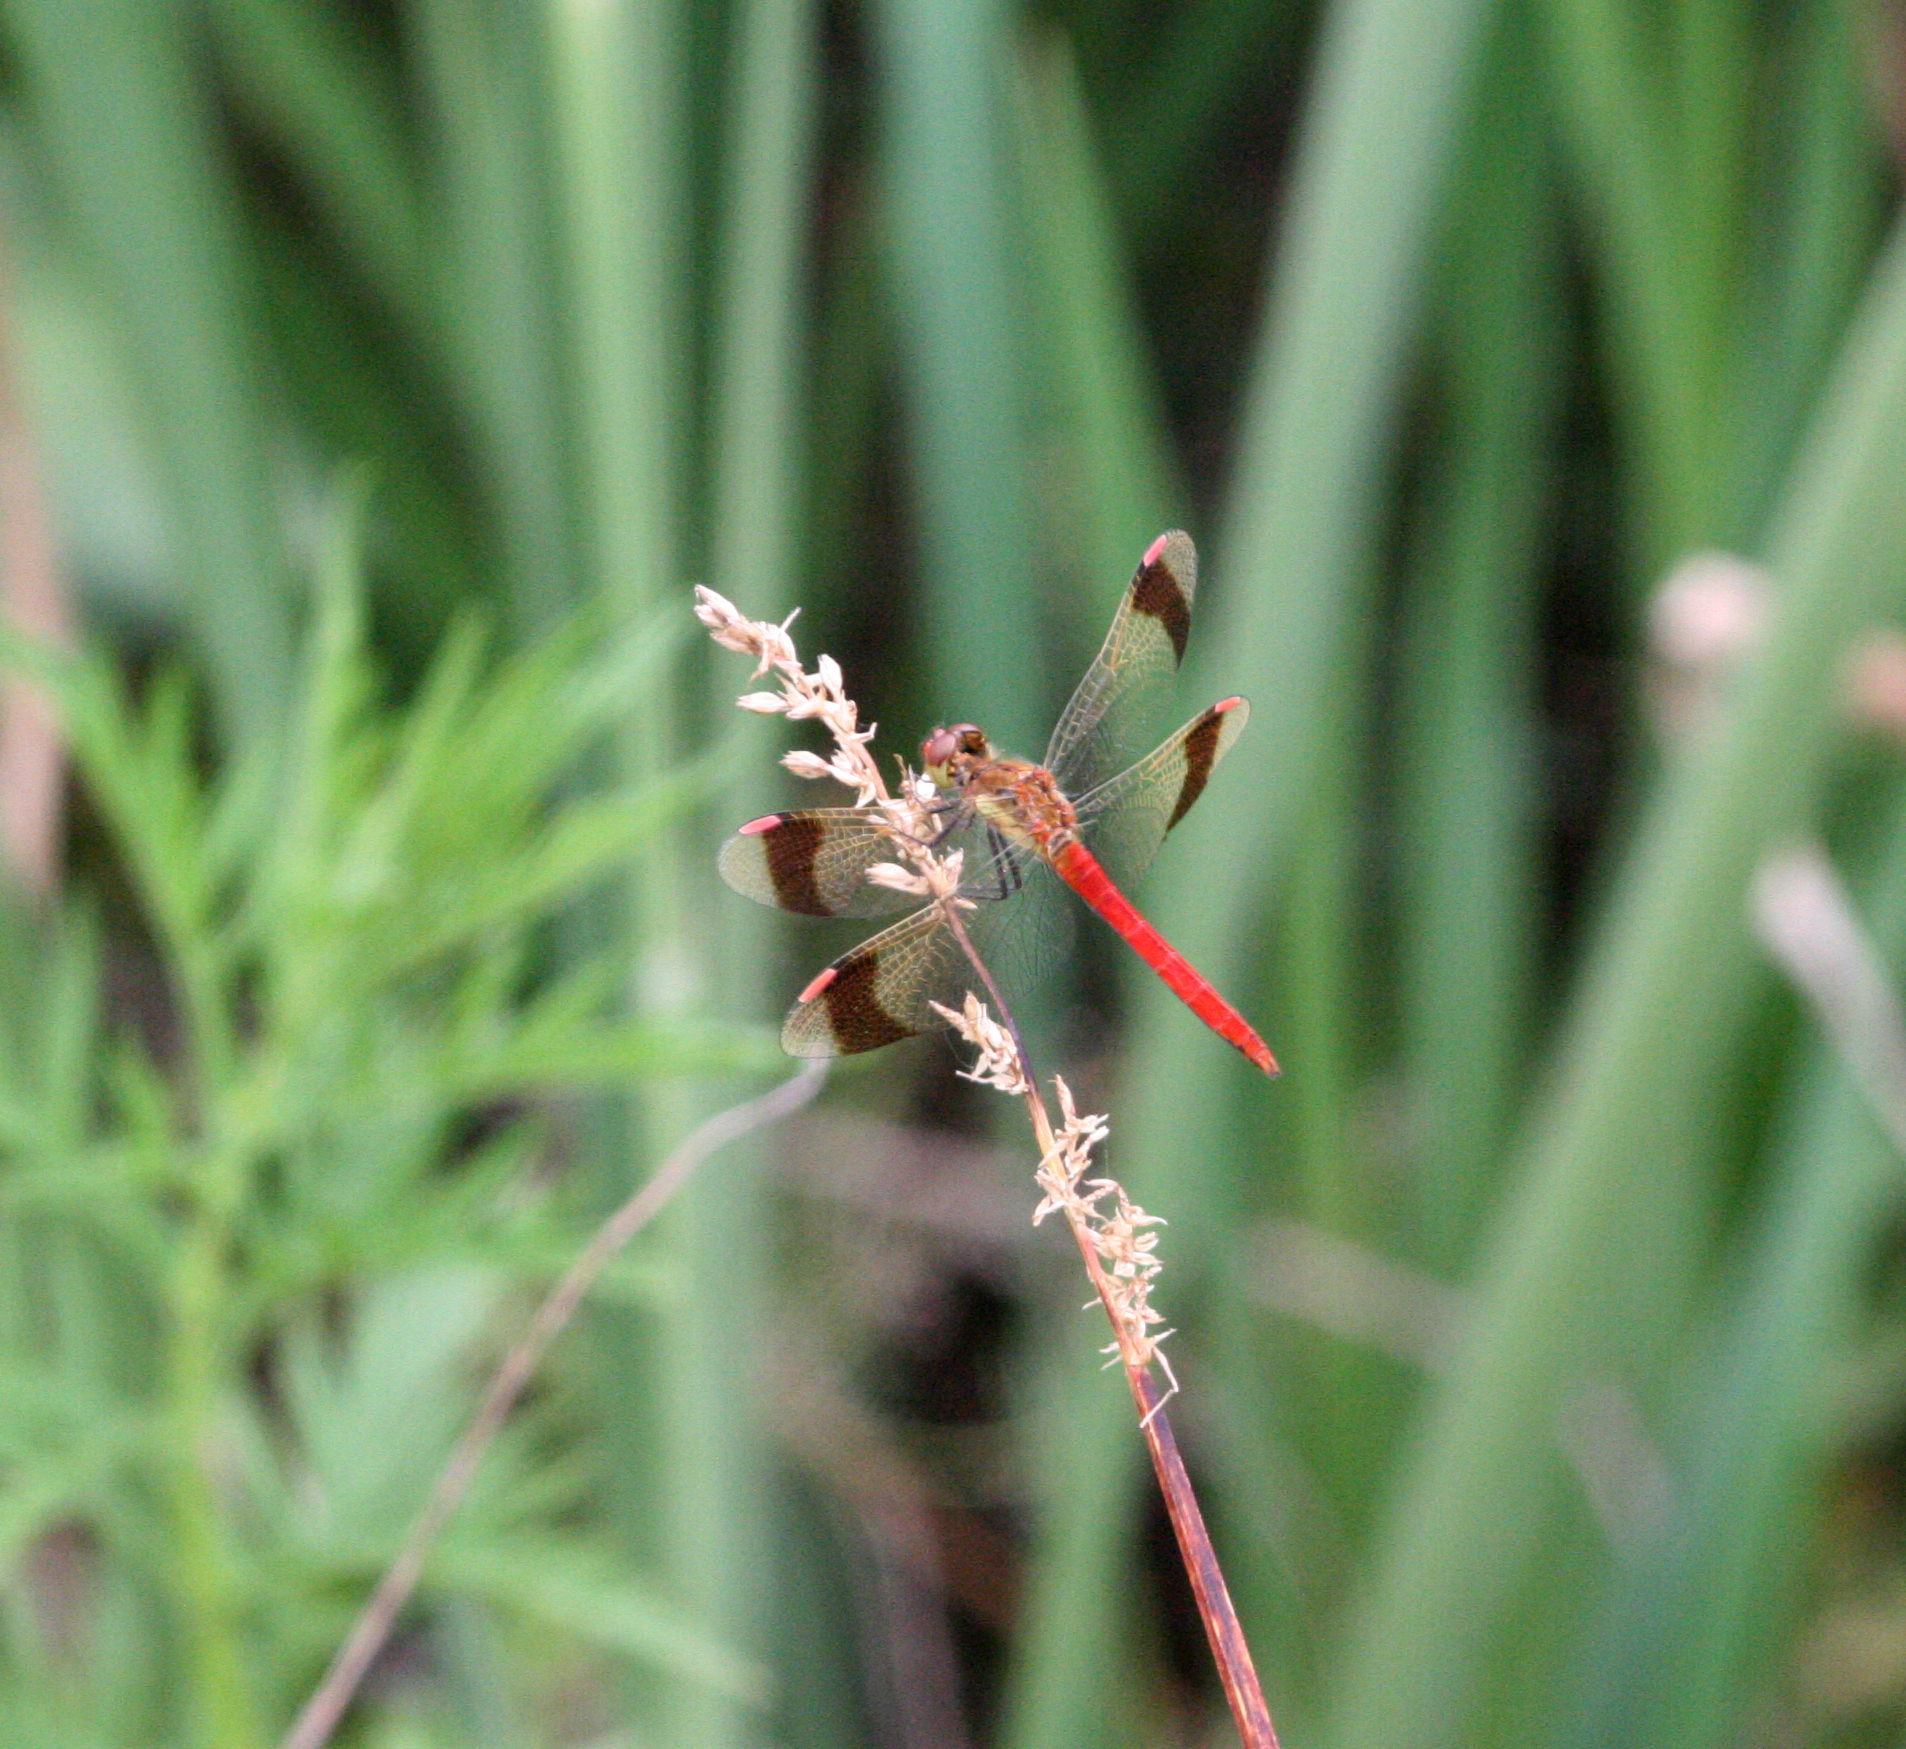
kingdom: Animalia
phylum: Arthropoda
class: Insecta
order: Odonata
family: Libellulidae
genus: Sympetrum
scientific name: Sympetrum pedemontanum
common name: Banded darter
